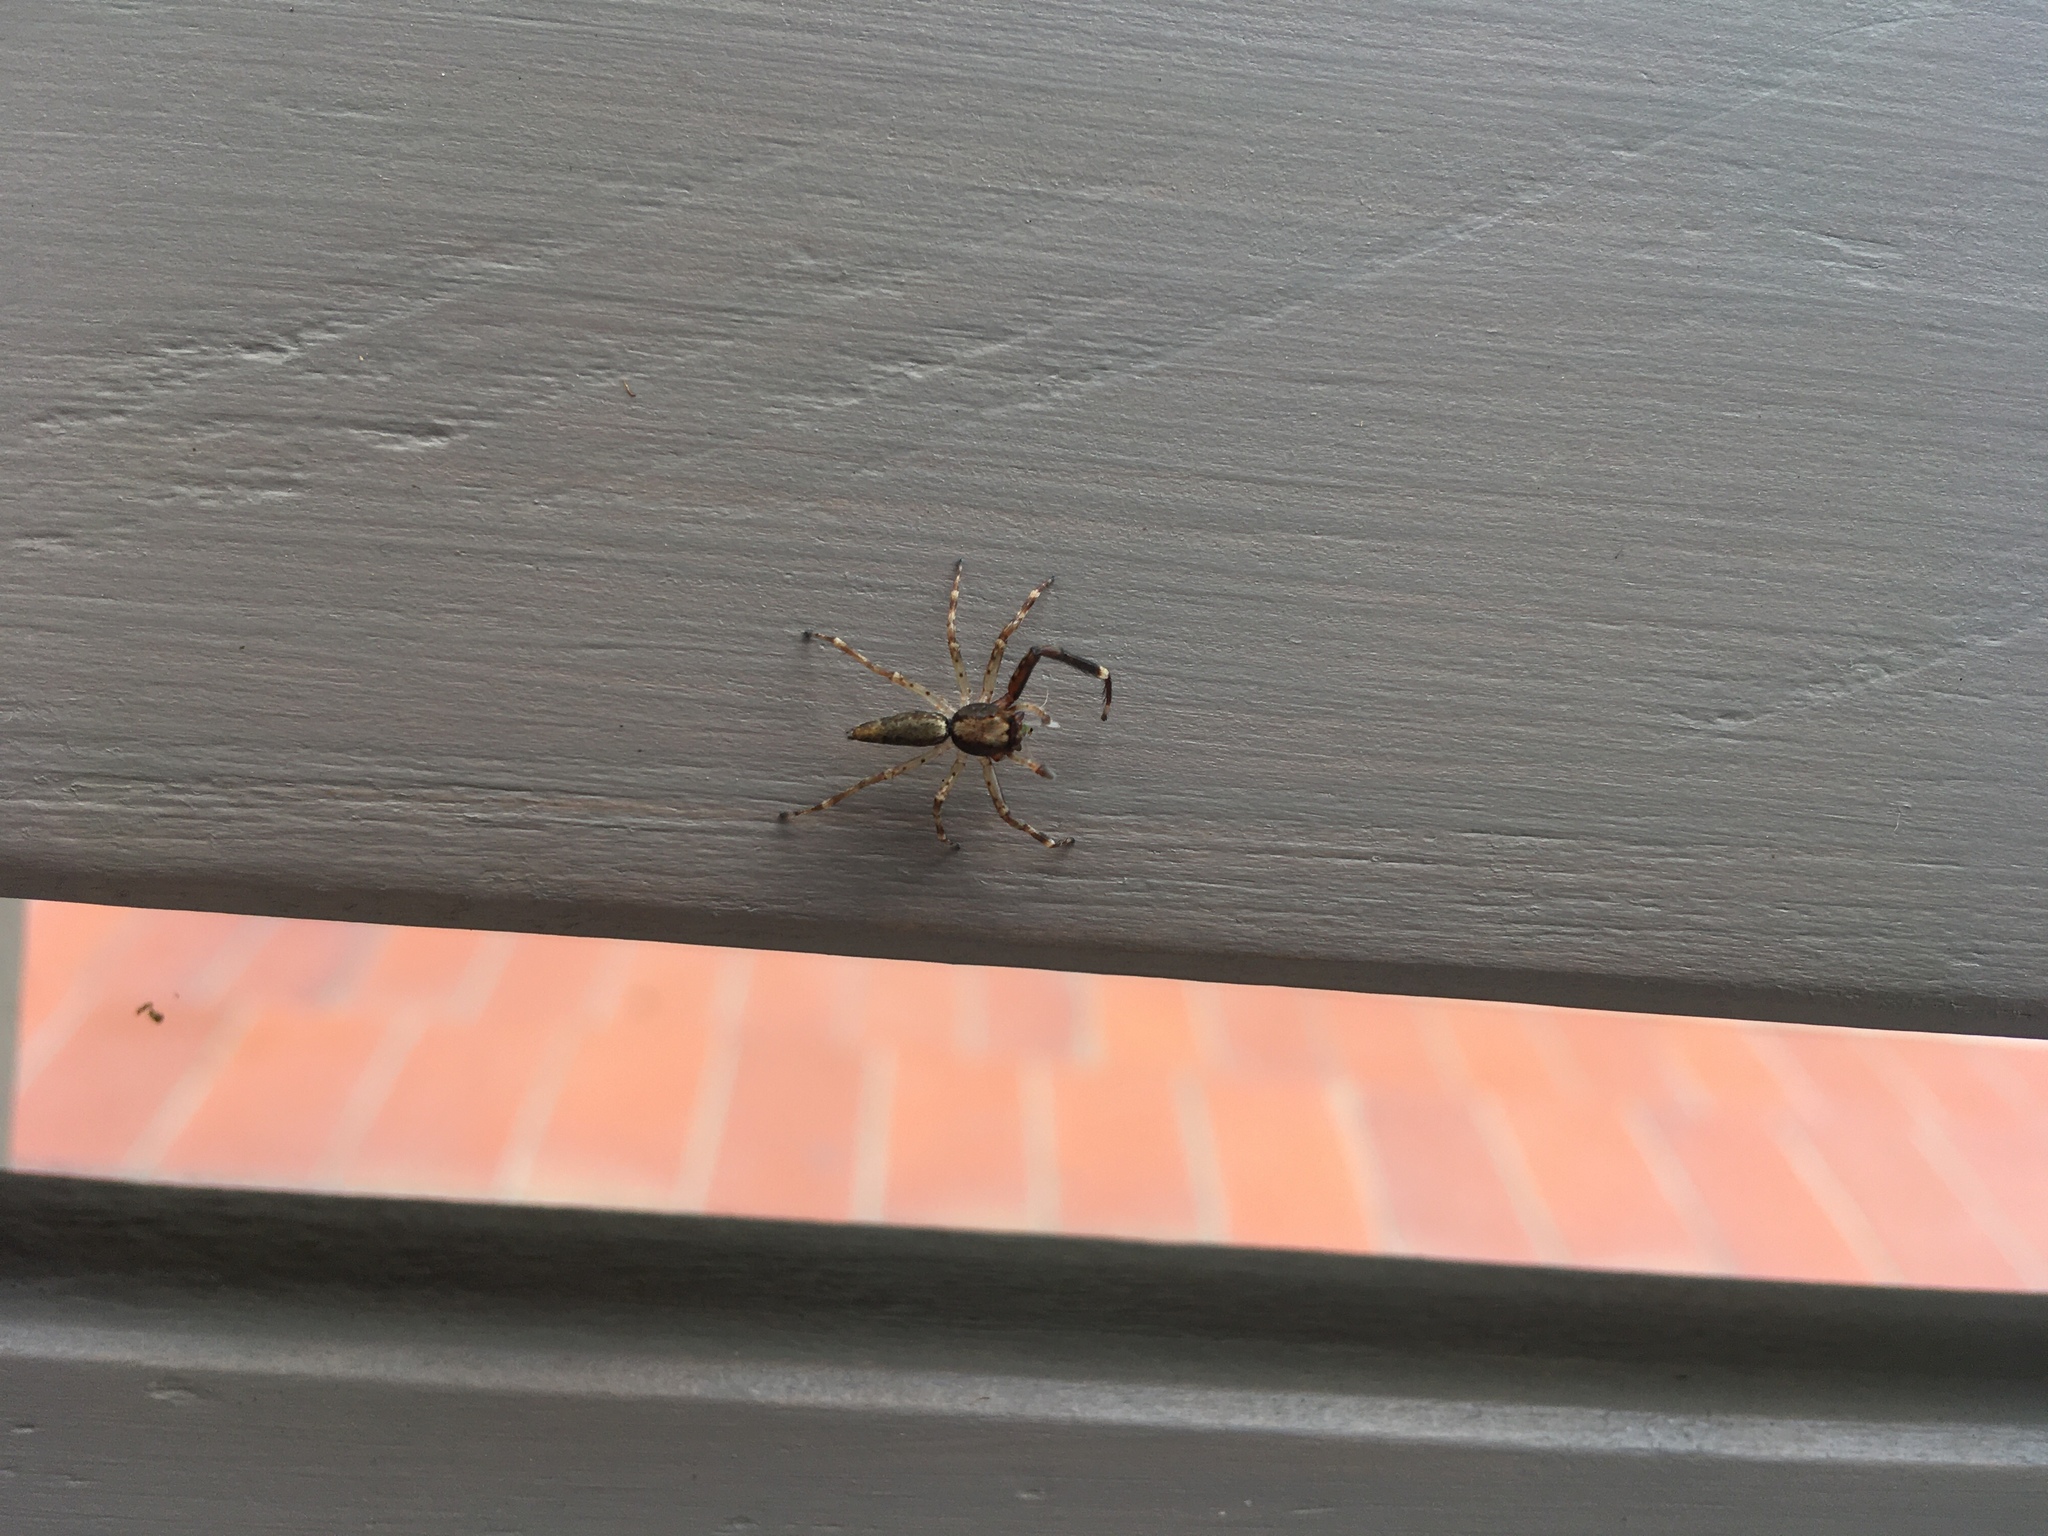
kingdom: Animalia
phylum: Arthropoda
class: Arachnida
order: Araneae
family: Salticidae
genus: Helpis
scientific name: Helpis minitabunda
